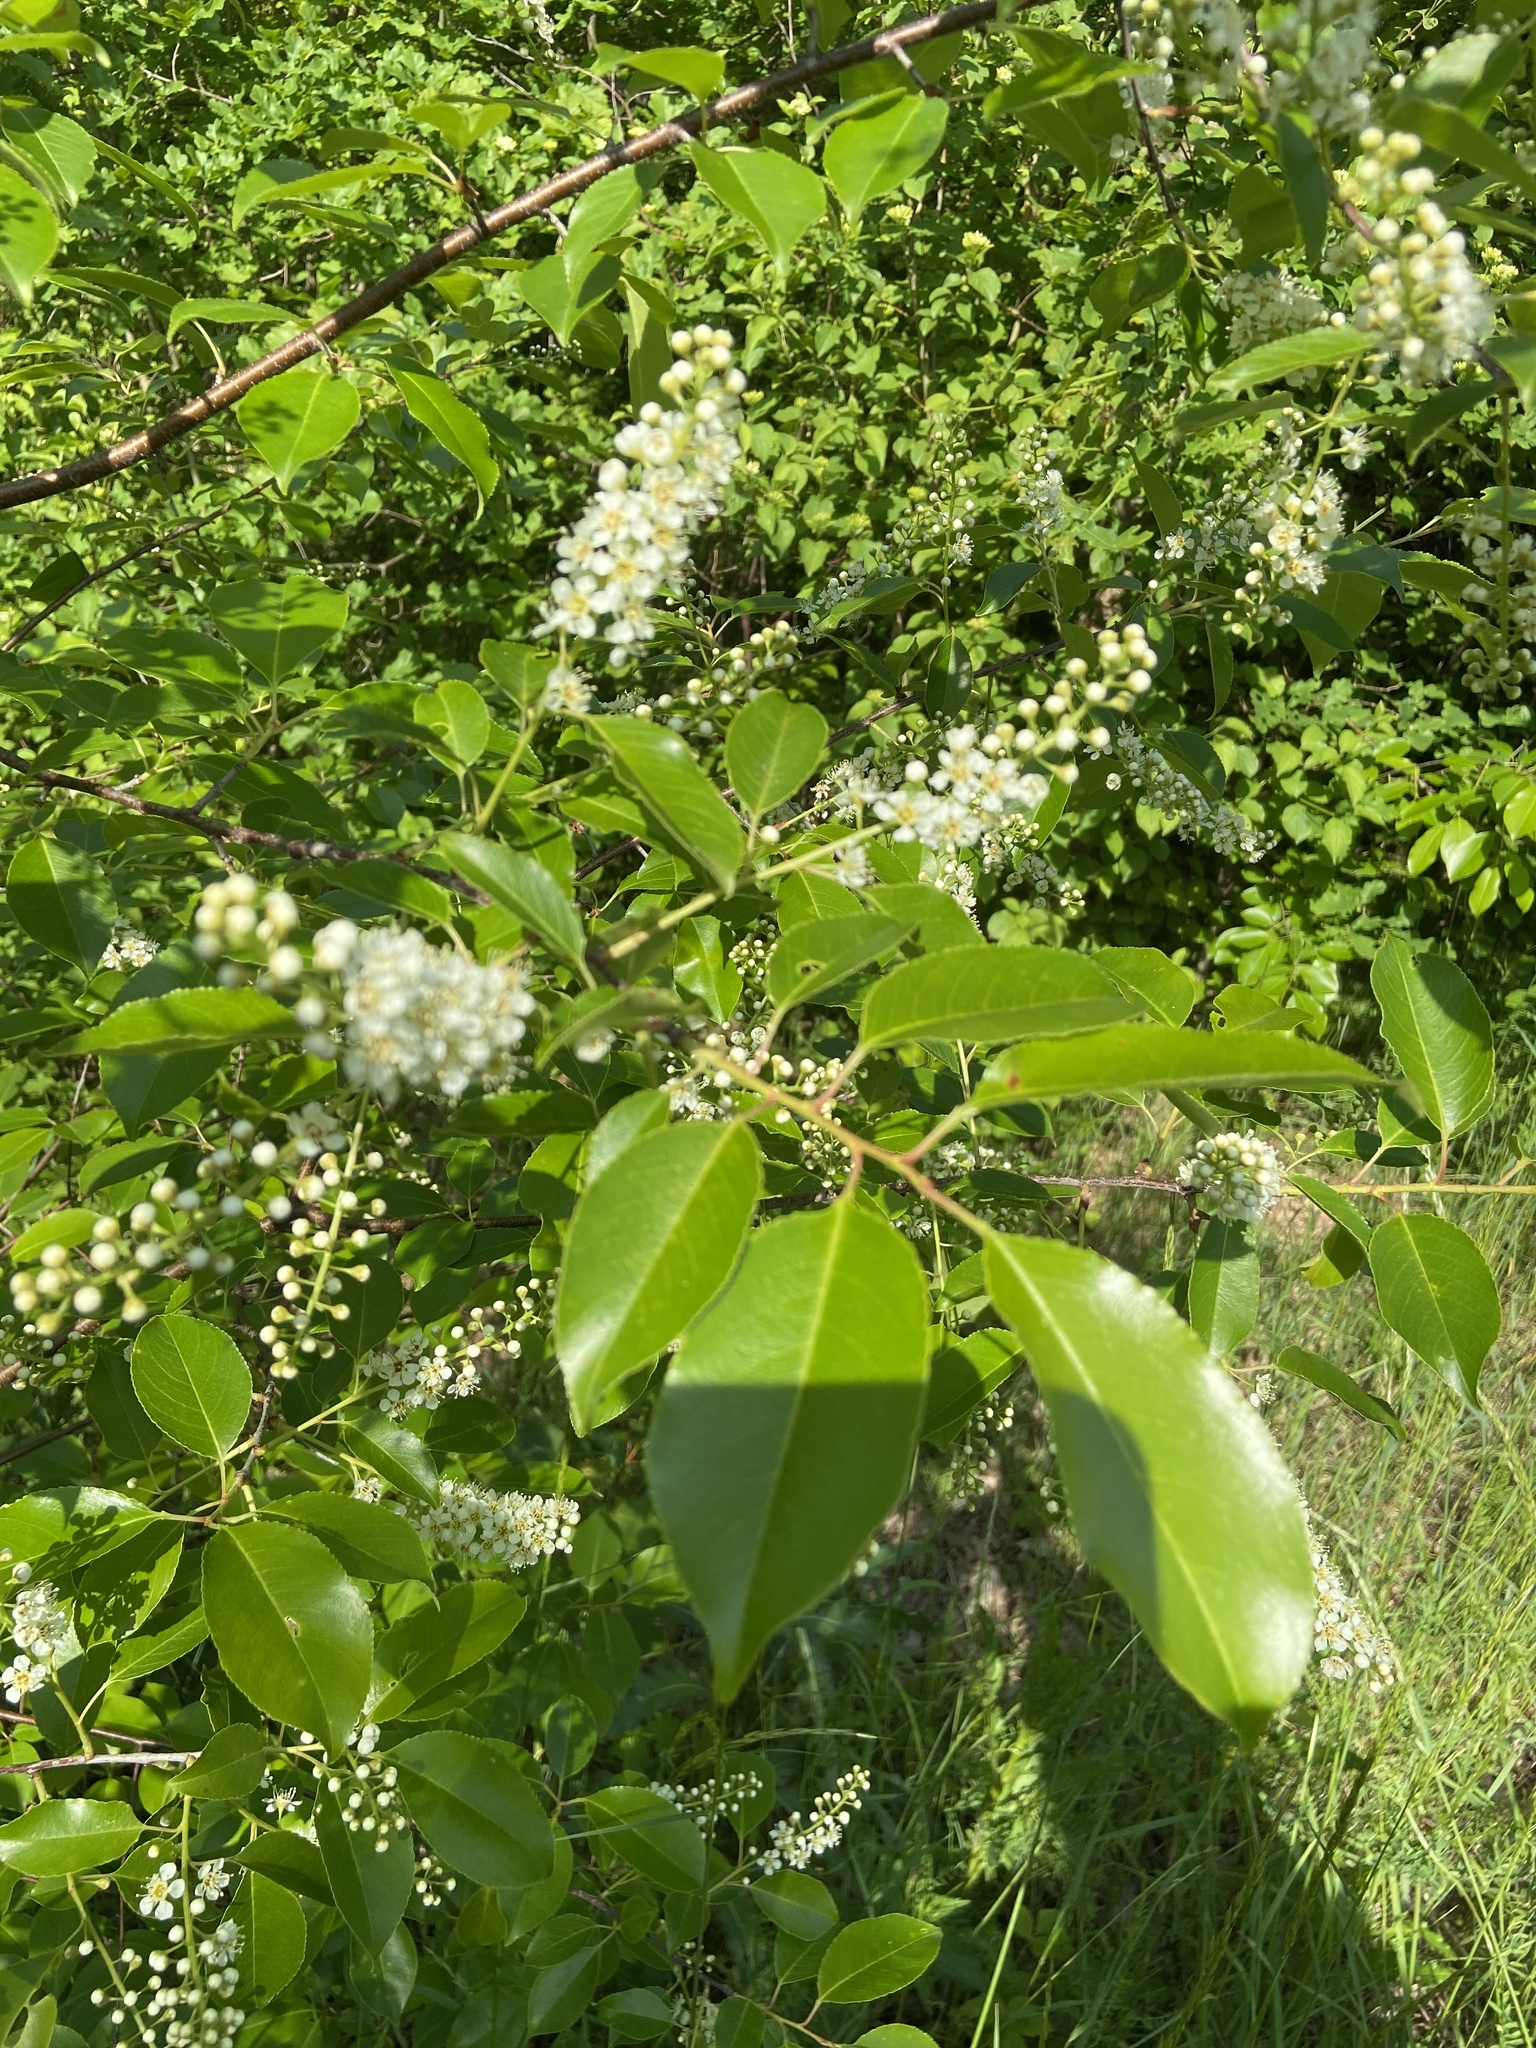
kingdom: Plantae
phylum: Tracheophyta
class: Magnoliopsida
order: Rosales
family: Rosaceae
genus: Prunus
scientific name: Prunus serotina
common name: Black cherry
